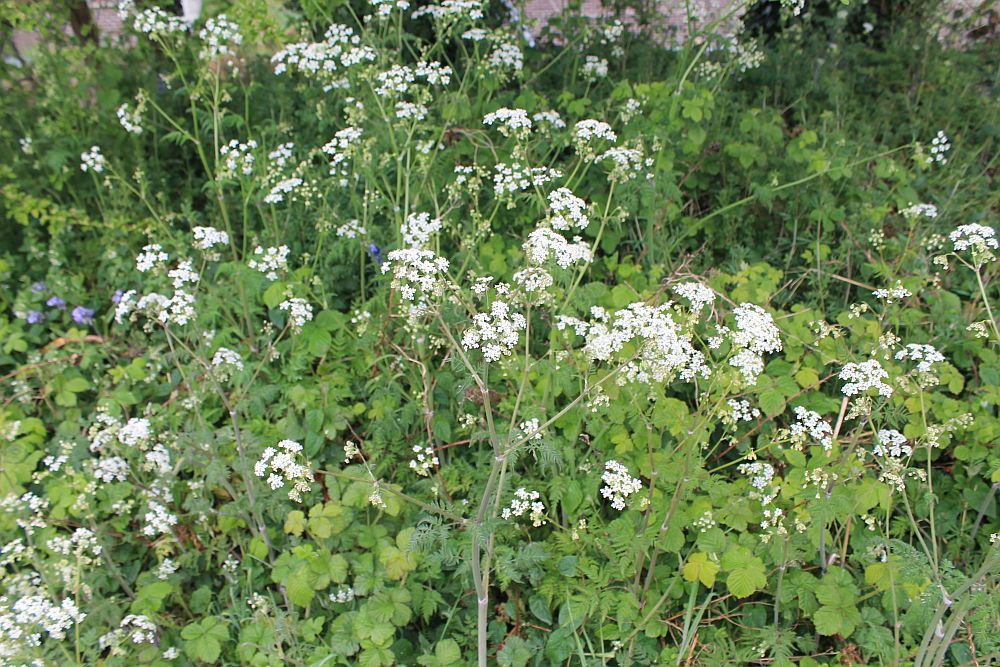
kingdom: Plantae
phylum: Tracheophyta
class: Magnoliopsida
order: Apiales
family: Apiaceae
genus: Anthriscus
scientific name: Anthriscus sylvestris
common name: Cow parsley
